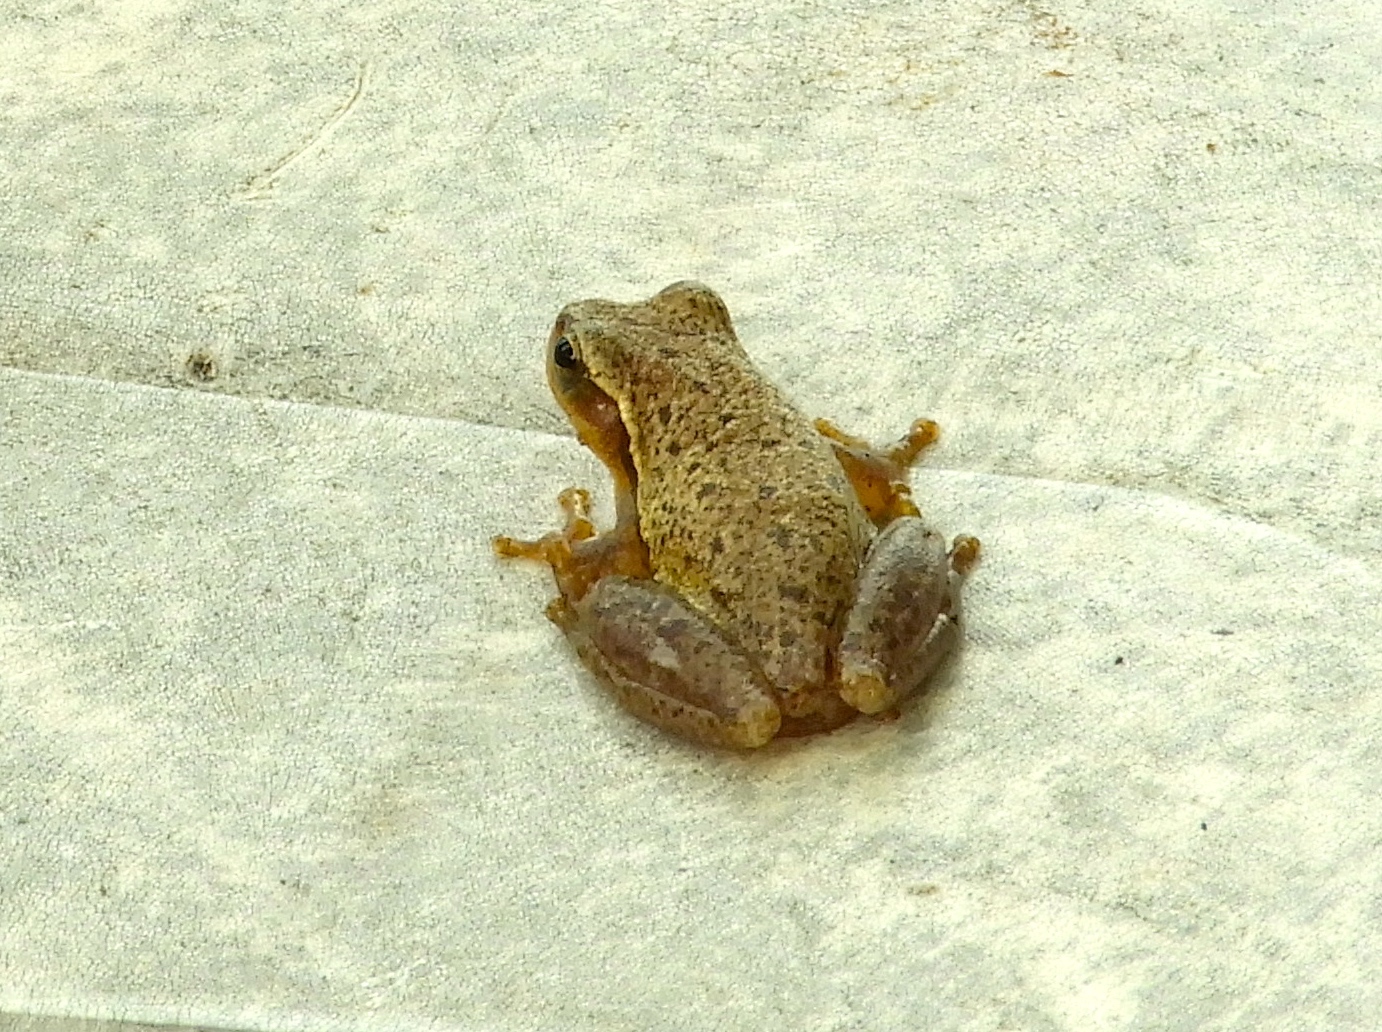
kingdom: Animalia
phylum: Chordata
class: Amphibia
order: Anura
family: Hylidae
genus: Tlalocohyla
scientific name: Tlalocohyla smithii
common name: Dwarf mexican treefrog
